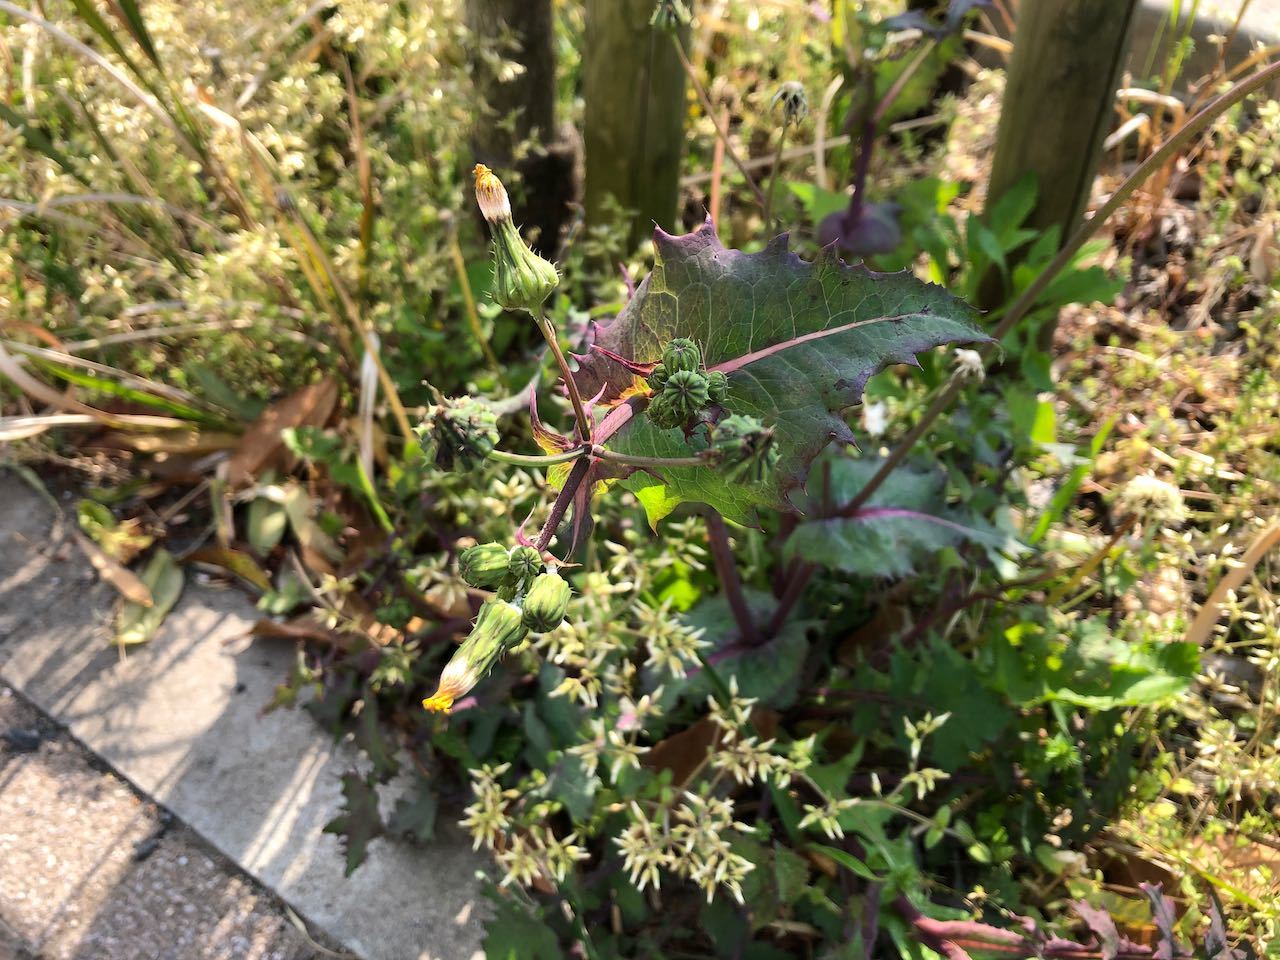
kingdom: Plantae
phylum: Tracheophyta
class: Magnoliopsida
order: Asterales
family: Asteraceae
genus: Sonchus
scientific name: Sonchus asper
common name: Prickly sow-thistle
